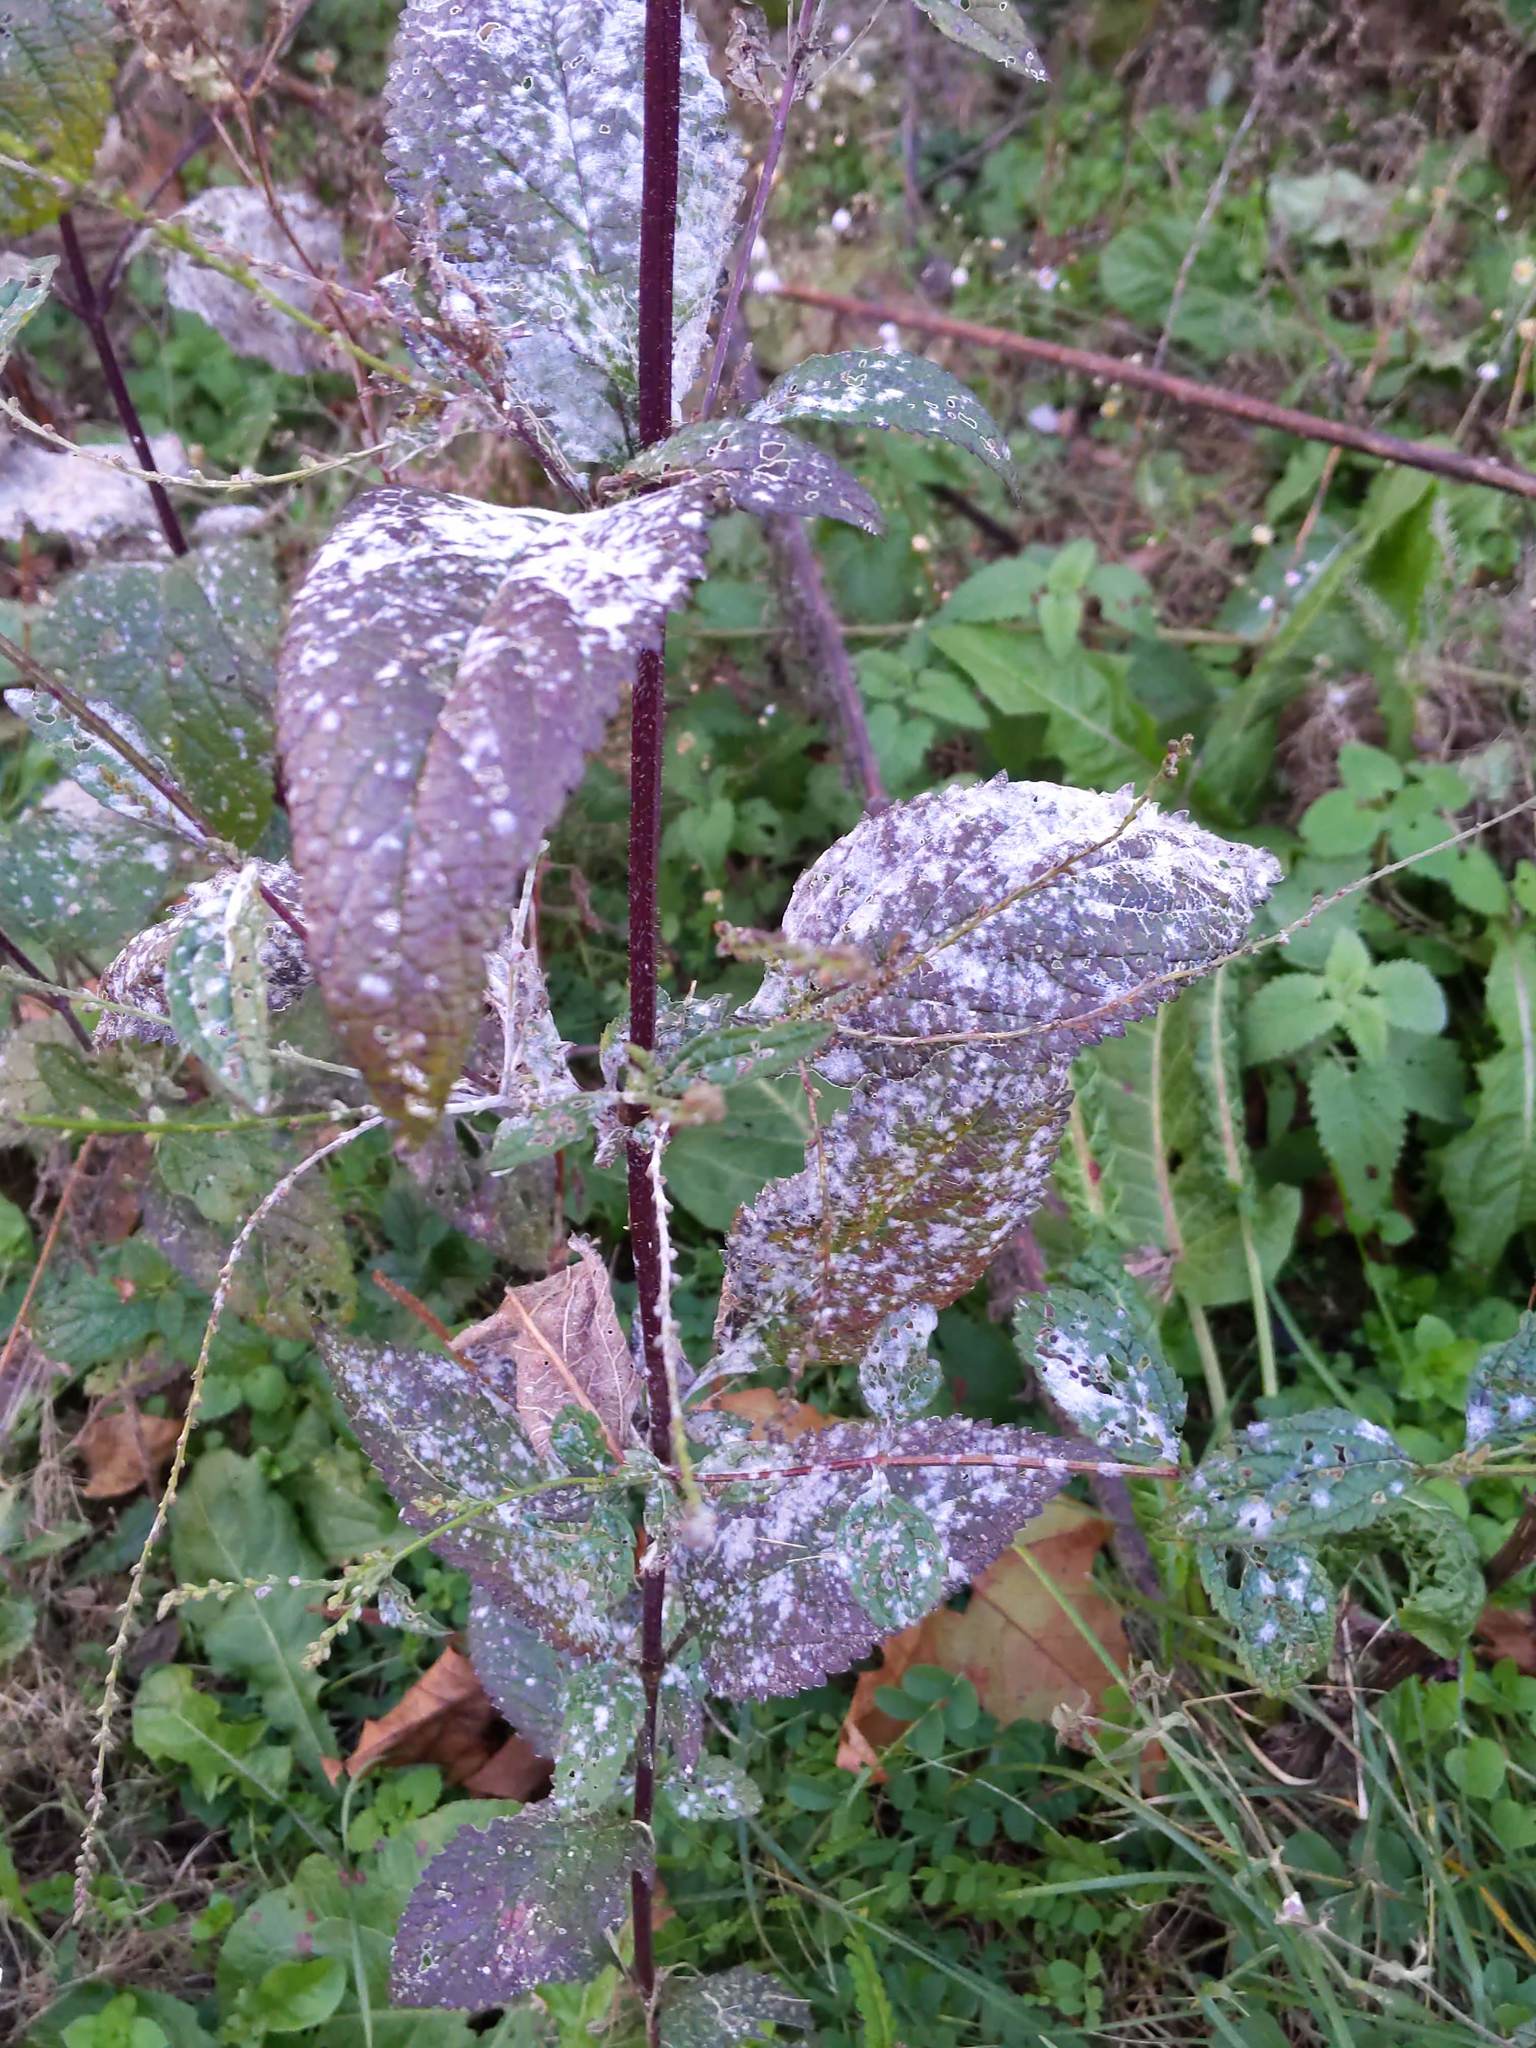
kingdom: Plantae
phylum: Tracheophyta
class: Magnoliopsida
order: Lamiales
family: Verbenaceae
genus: Verbena
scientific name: Verbena urticifolia
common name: Nettle-leaved vervain
